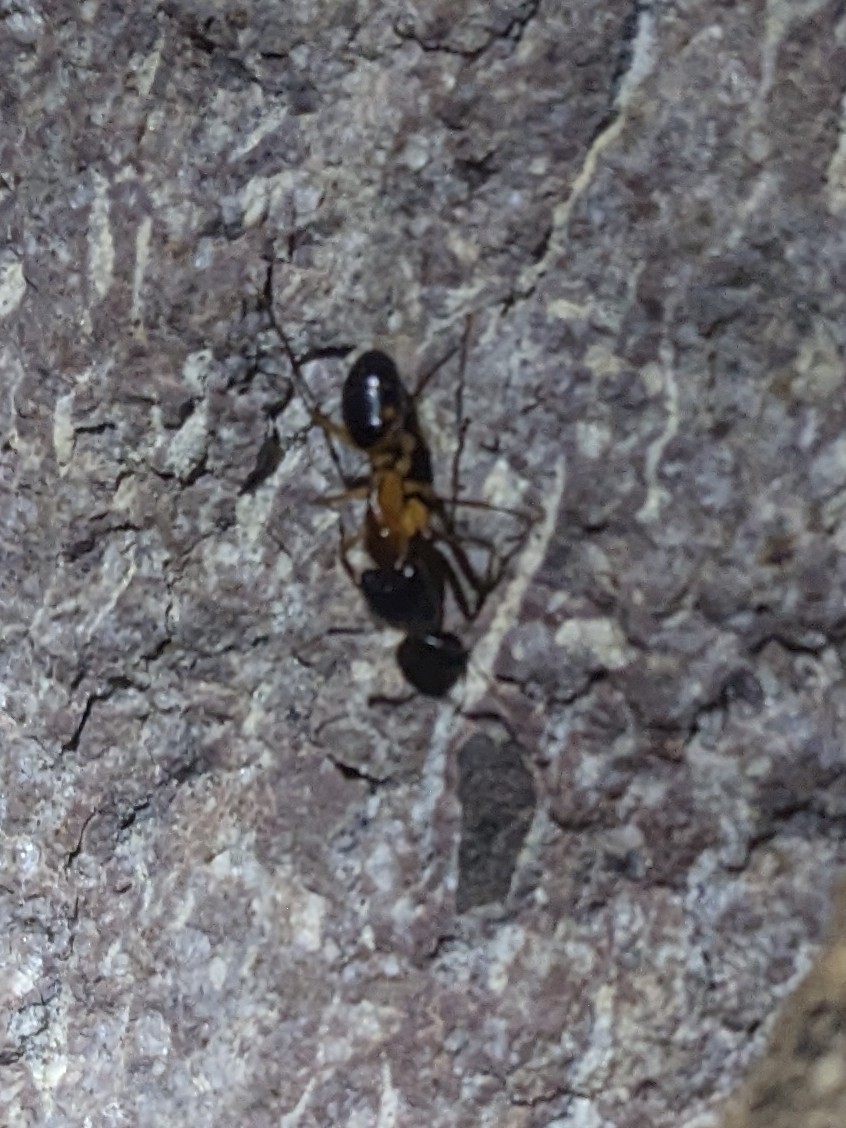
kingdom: Animalia
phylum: Arthropoda
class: Insecta
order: Hymenoptera
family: Formicidae
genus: Camponotus
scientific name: Camponotus vafer
